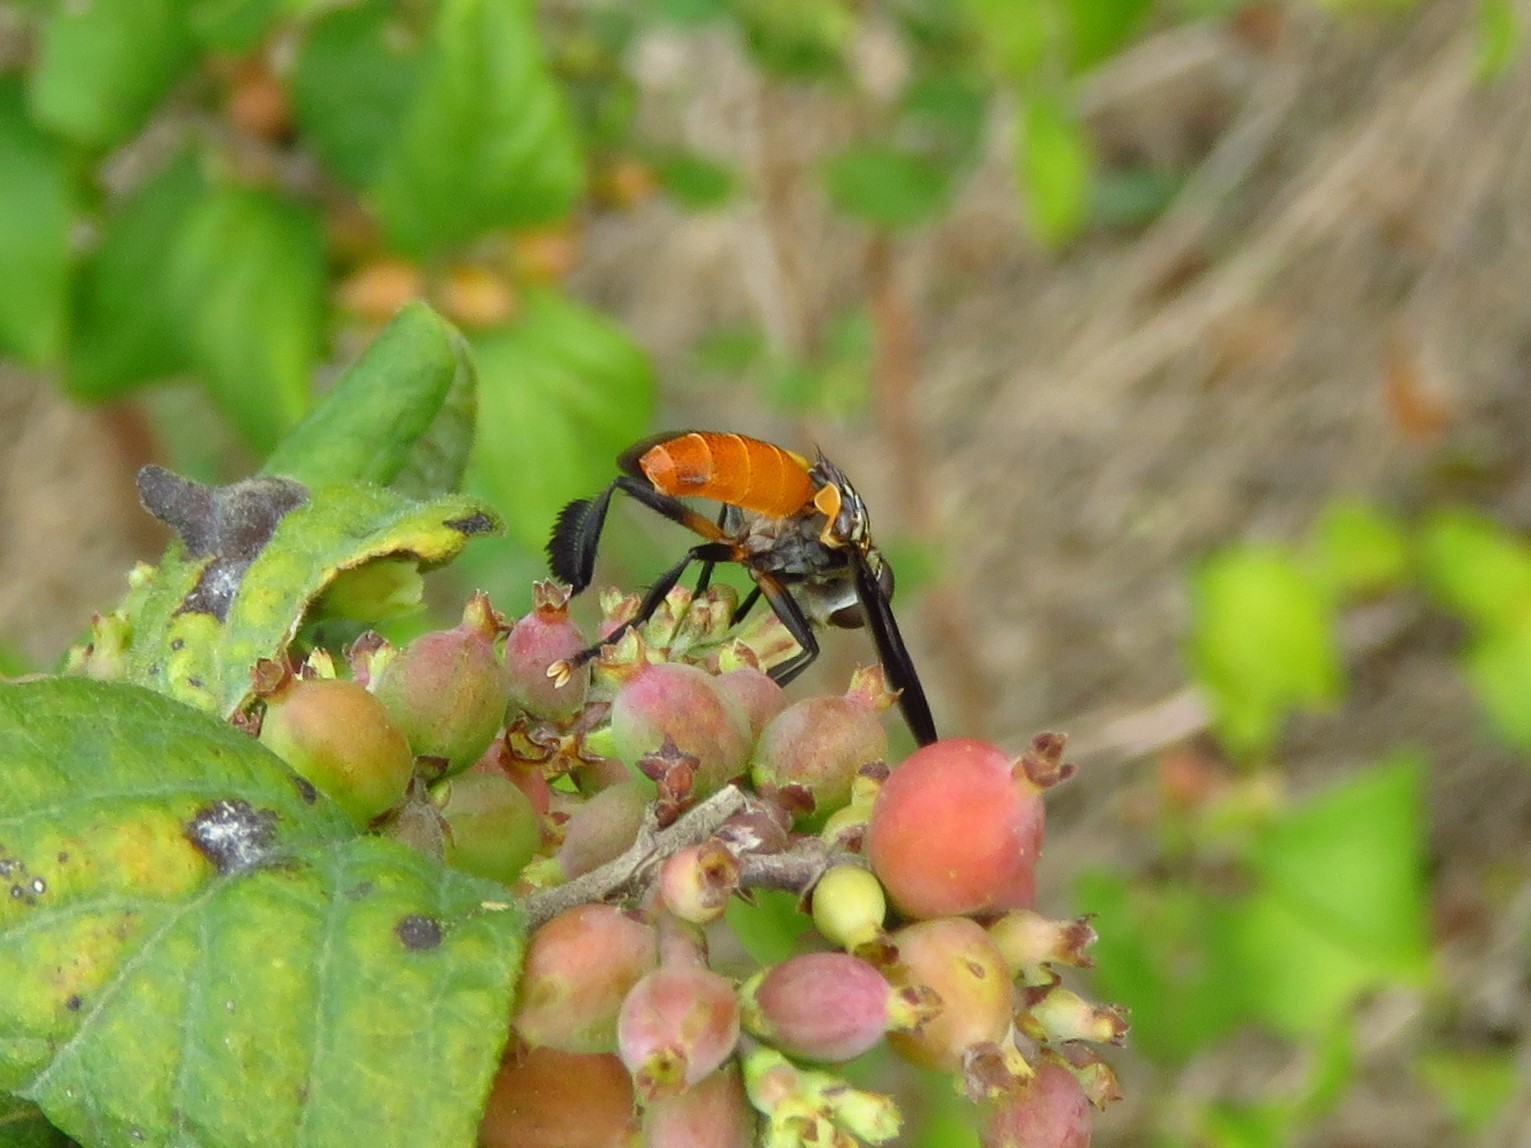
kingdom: Animalia
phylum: Arthropoda
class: Insecta
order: Diptera
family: Tachinidae
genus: Trichopoda
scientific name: Trichopoda pennipes
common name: Tachinid fly
